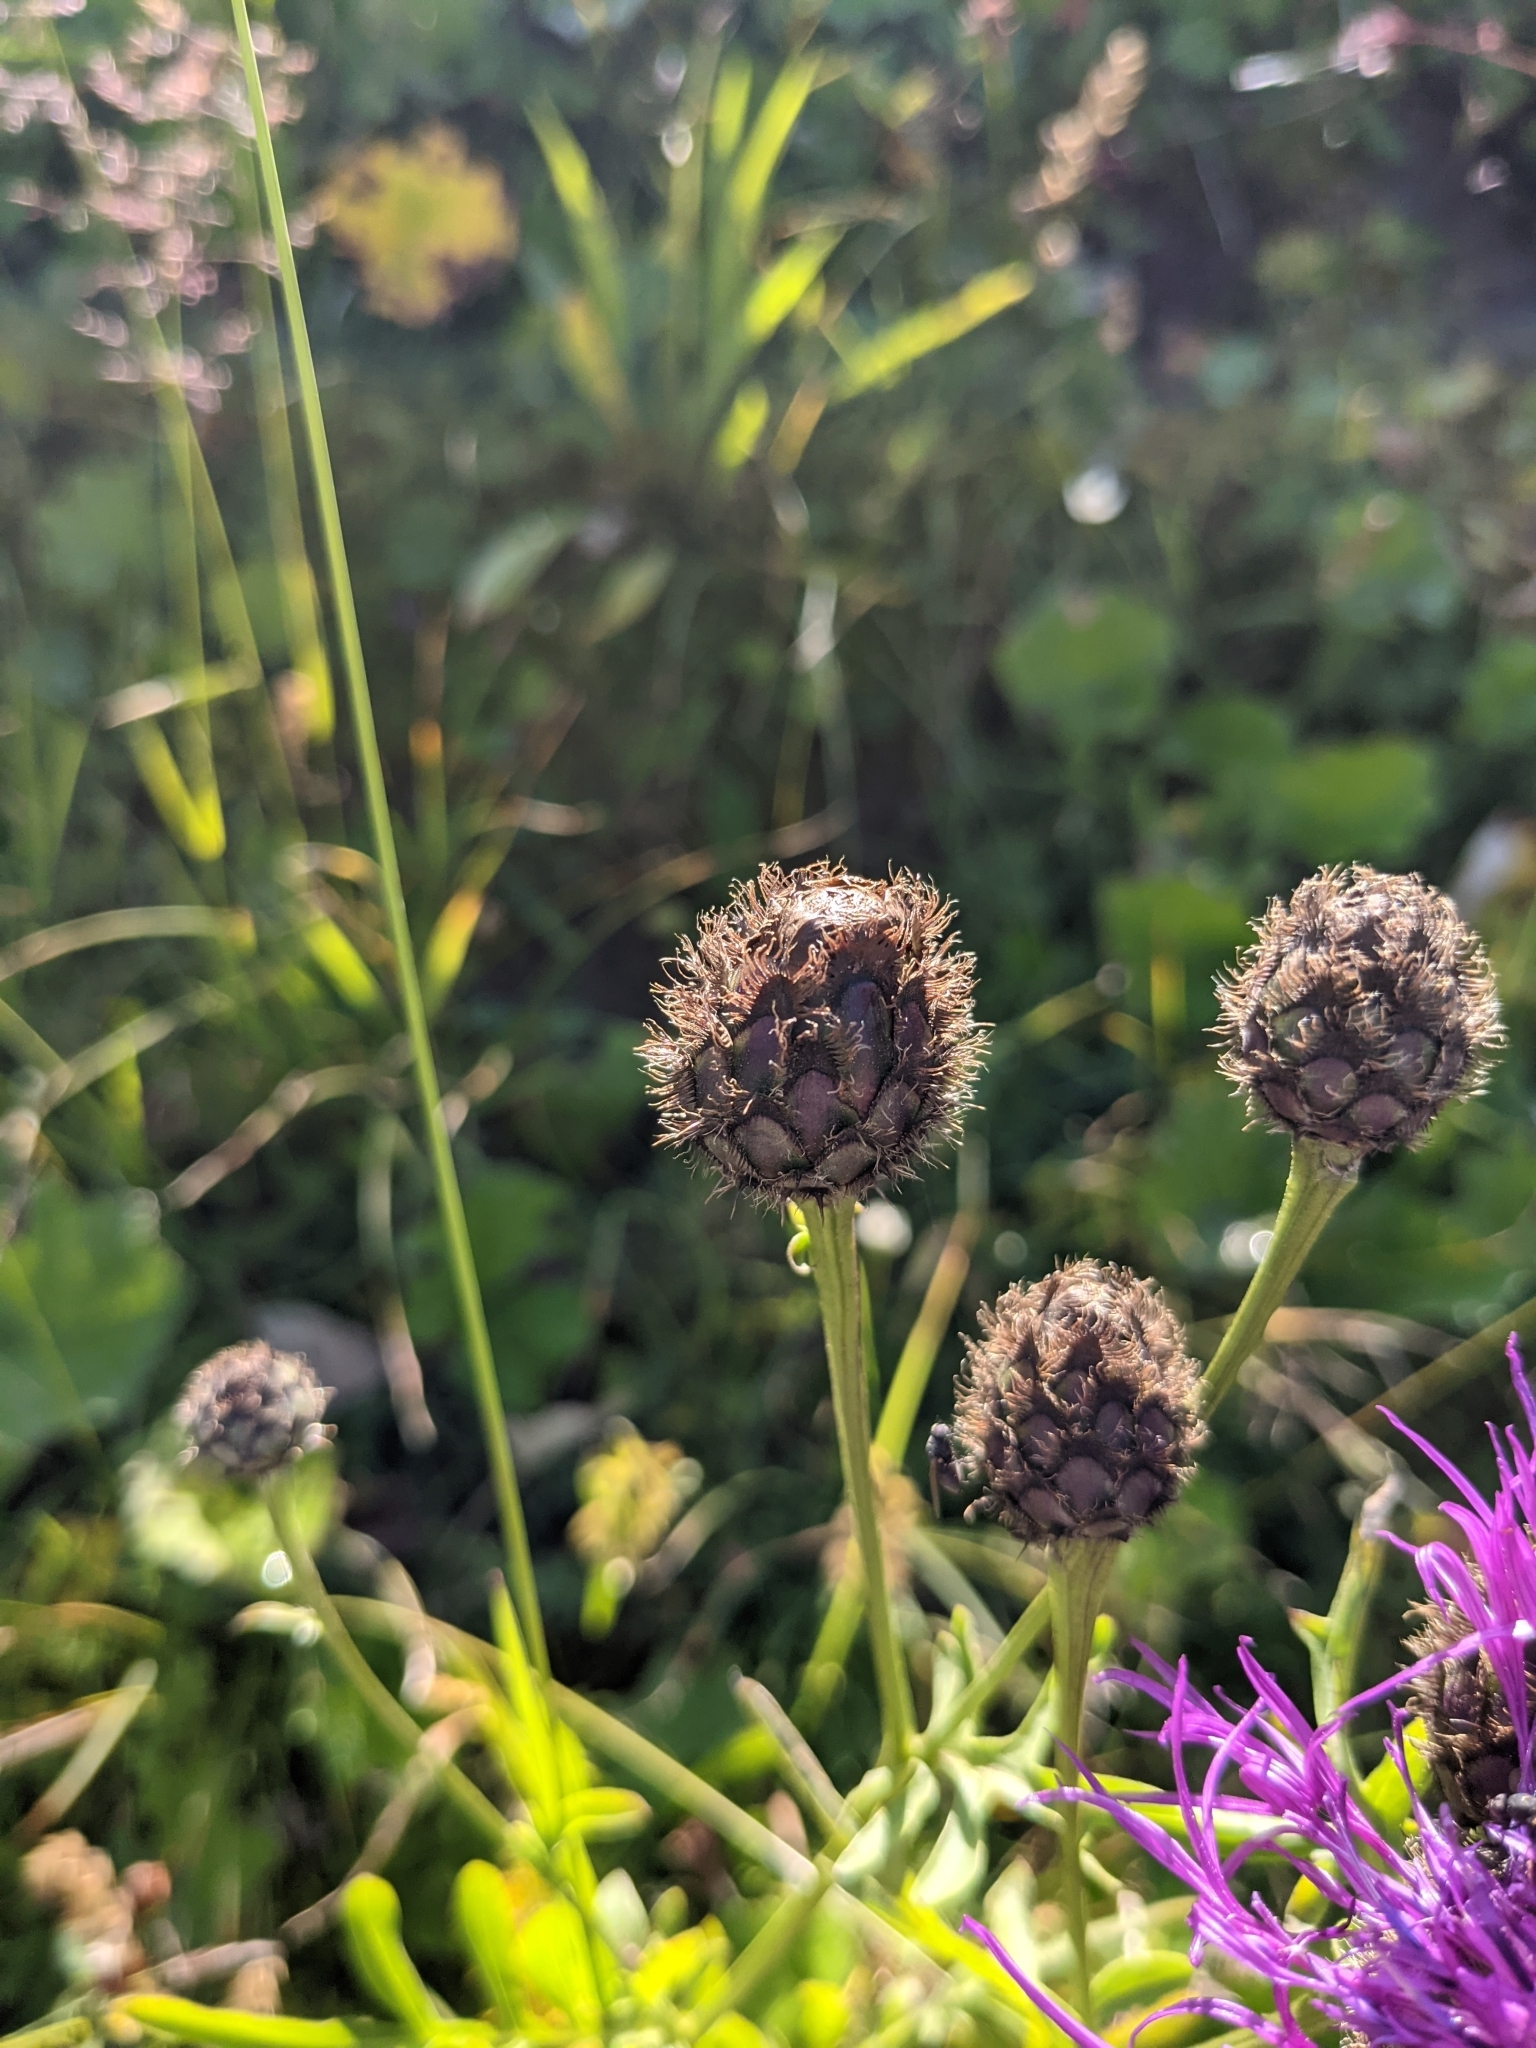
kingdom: Plantae
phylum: Tracheophyta
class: Magnoliopsida
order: Asterales
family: Asteraceae
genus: Centaurea
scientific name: Centaurea scabiosa
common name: Greater knapweed
